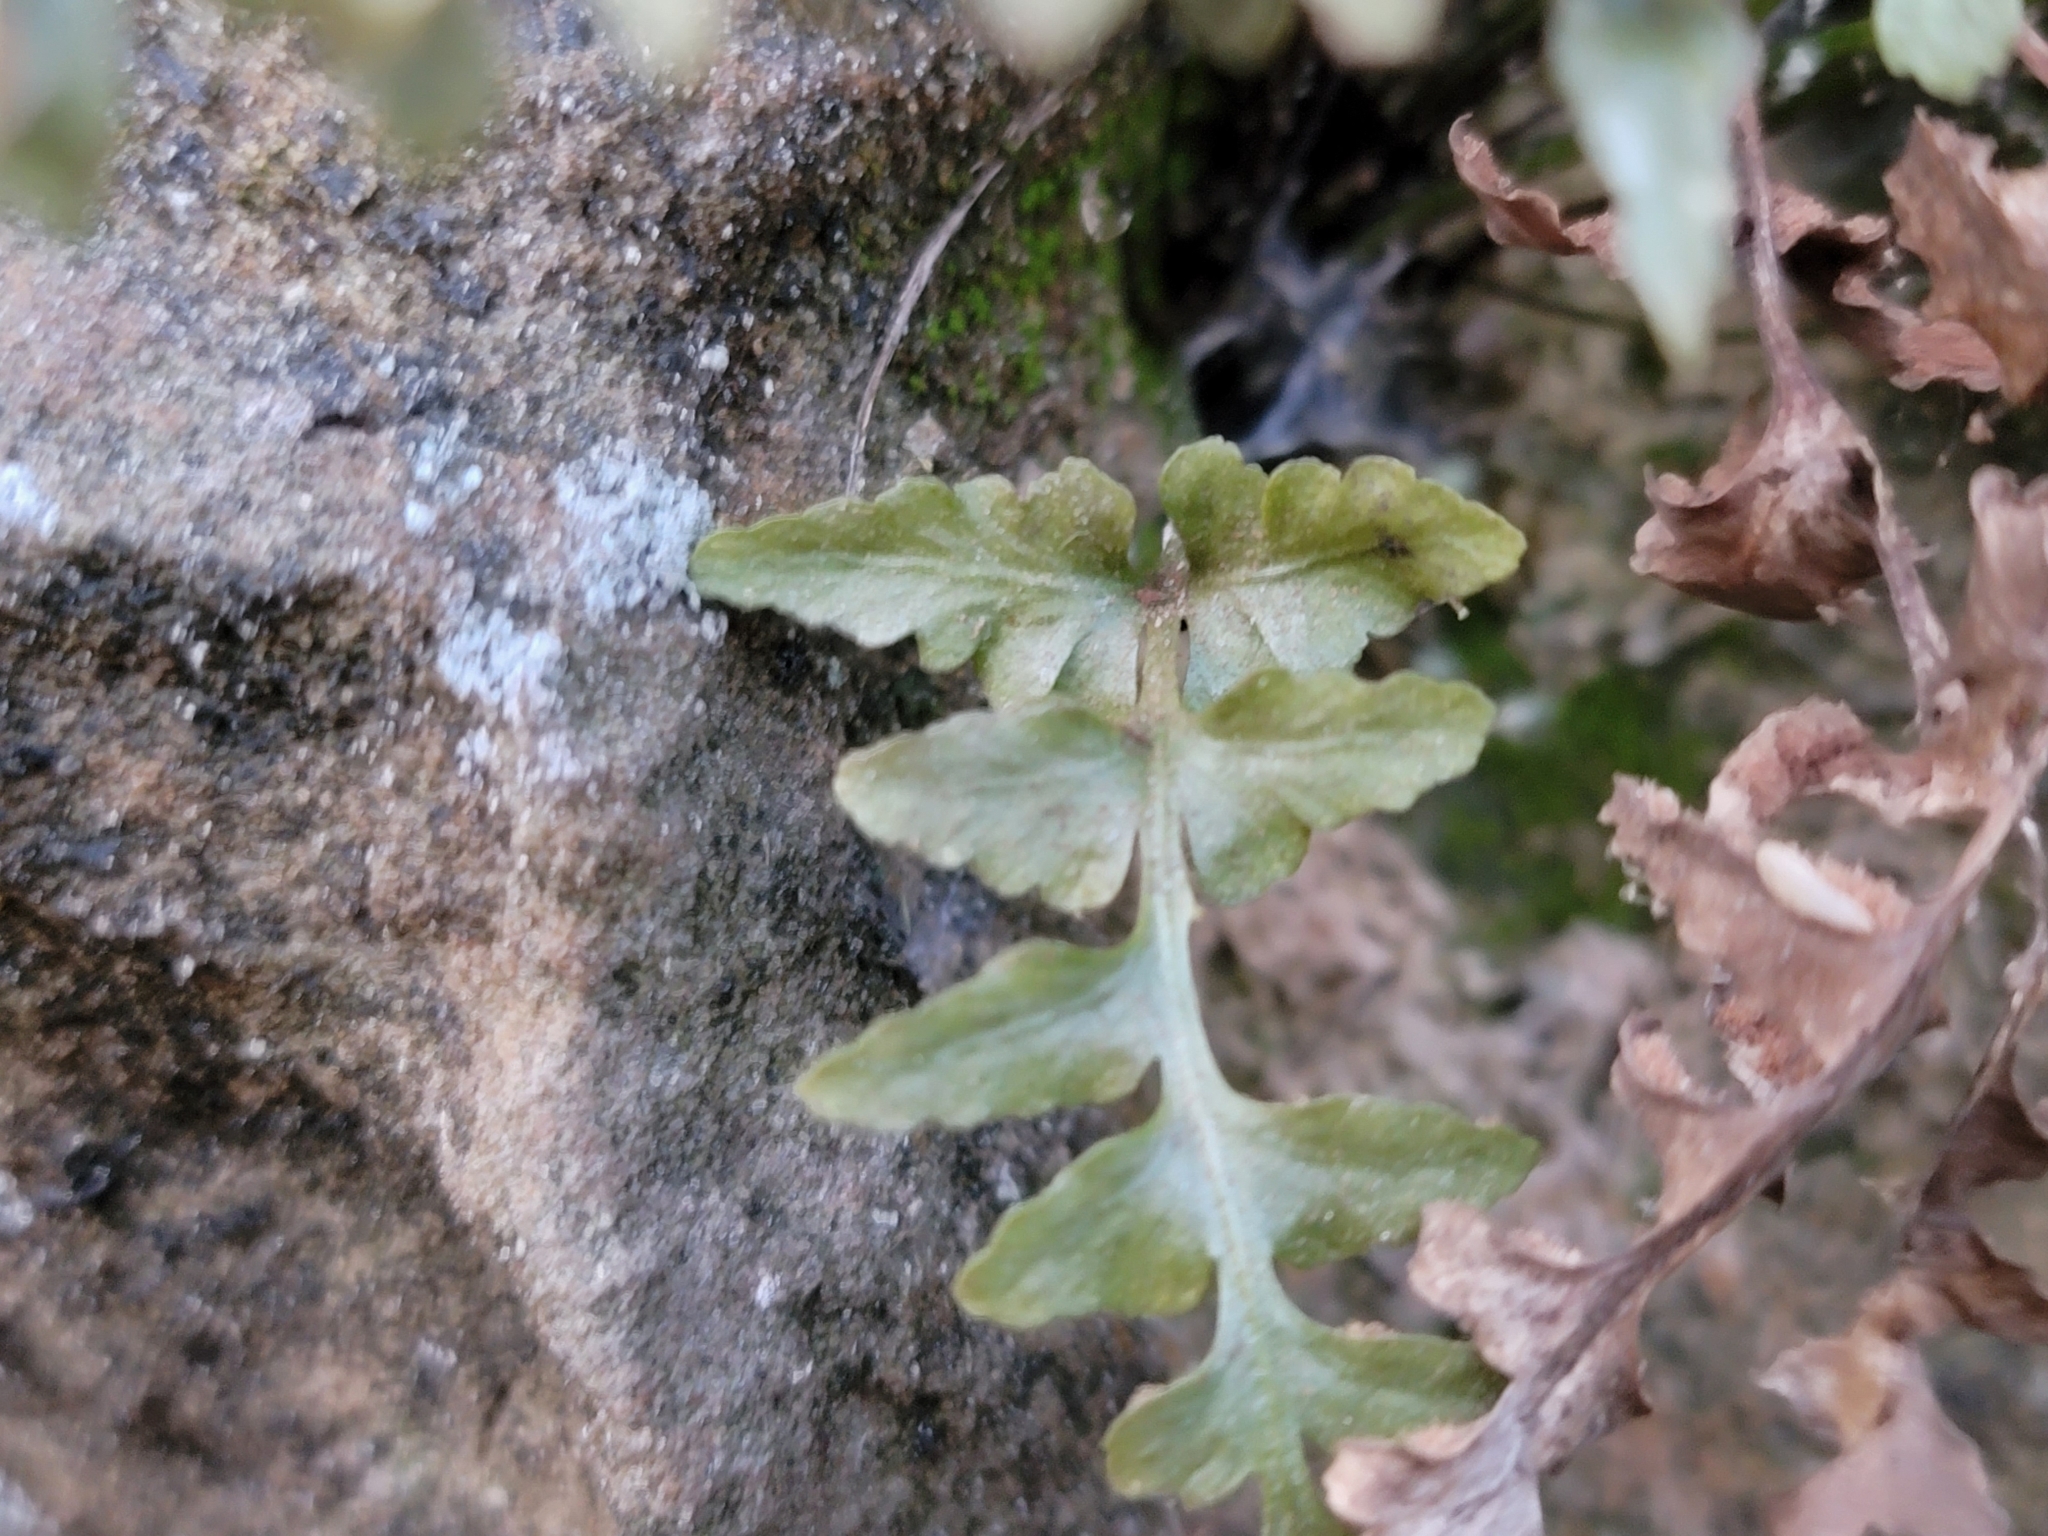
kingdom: Plantae
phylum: Tracheophyta
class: Polypodiopsida
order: Polypodiales
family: Aspleniaceae
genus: Asplenium
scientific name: Asplenium pinnatifidum
